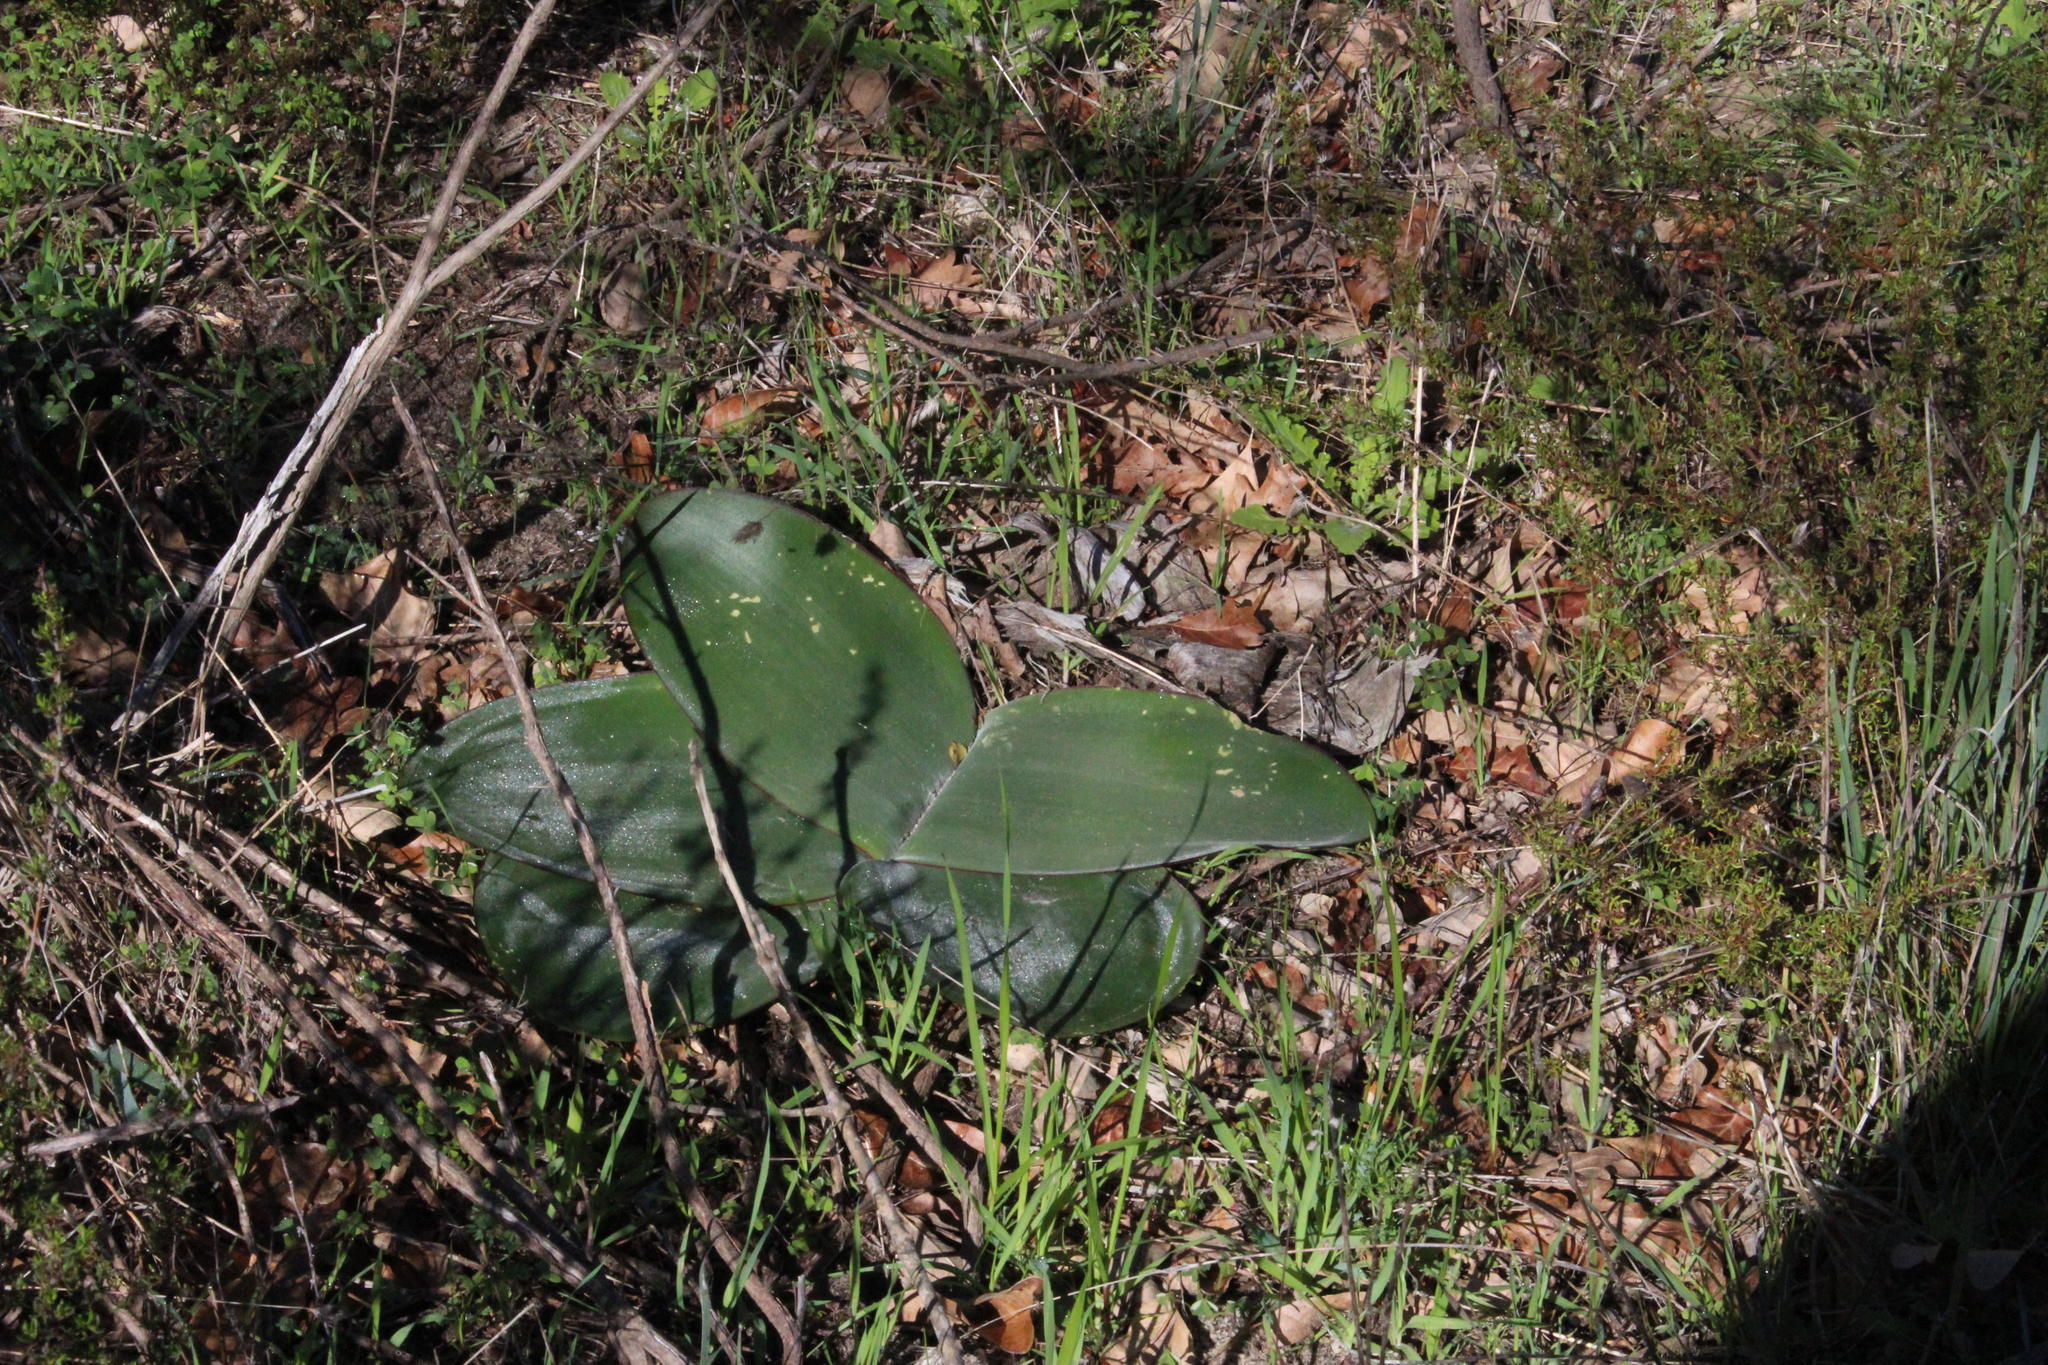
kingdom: Plantae
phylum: Tracheophyta
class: Liliopsida
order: Asparagales
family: Amaryllidaceae
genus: Brunsvigia
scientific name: Brunsvigia orientalis
